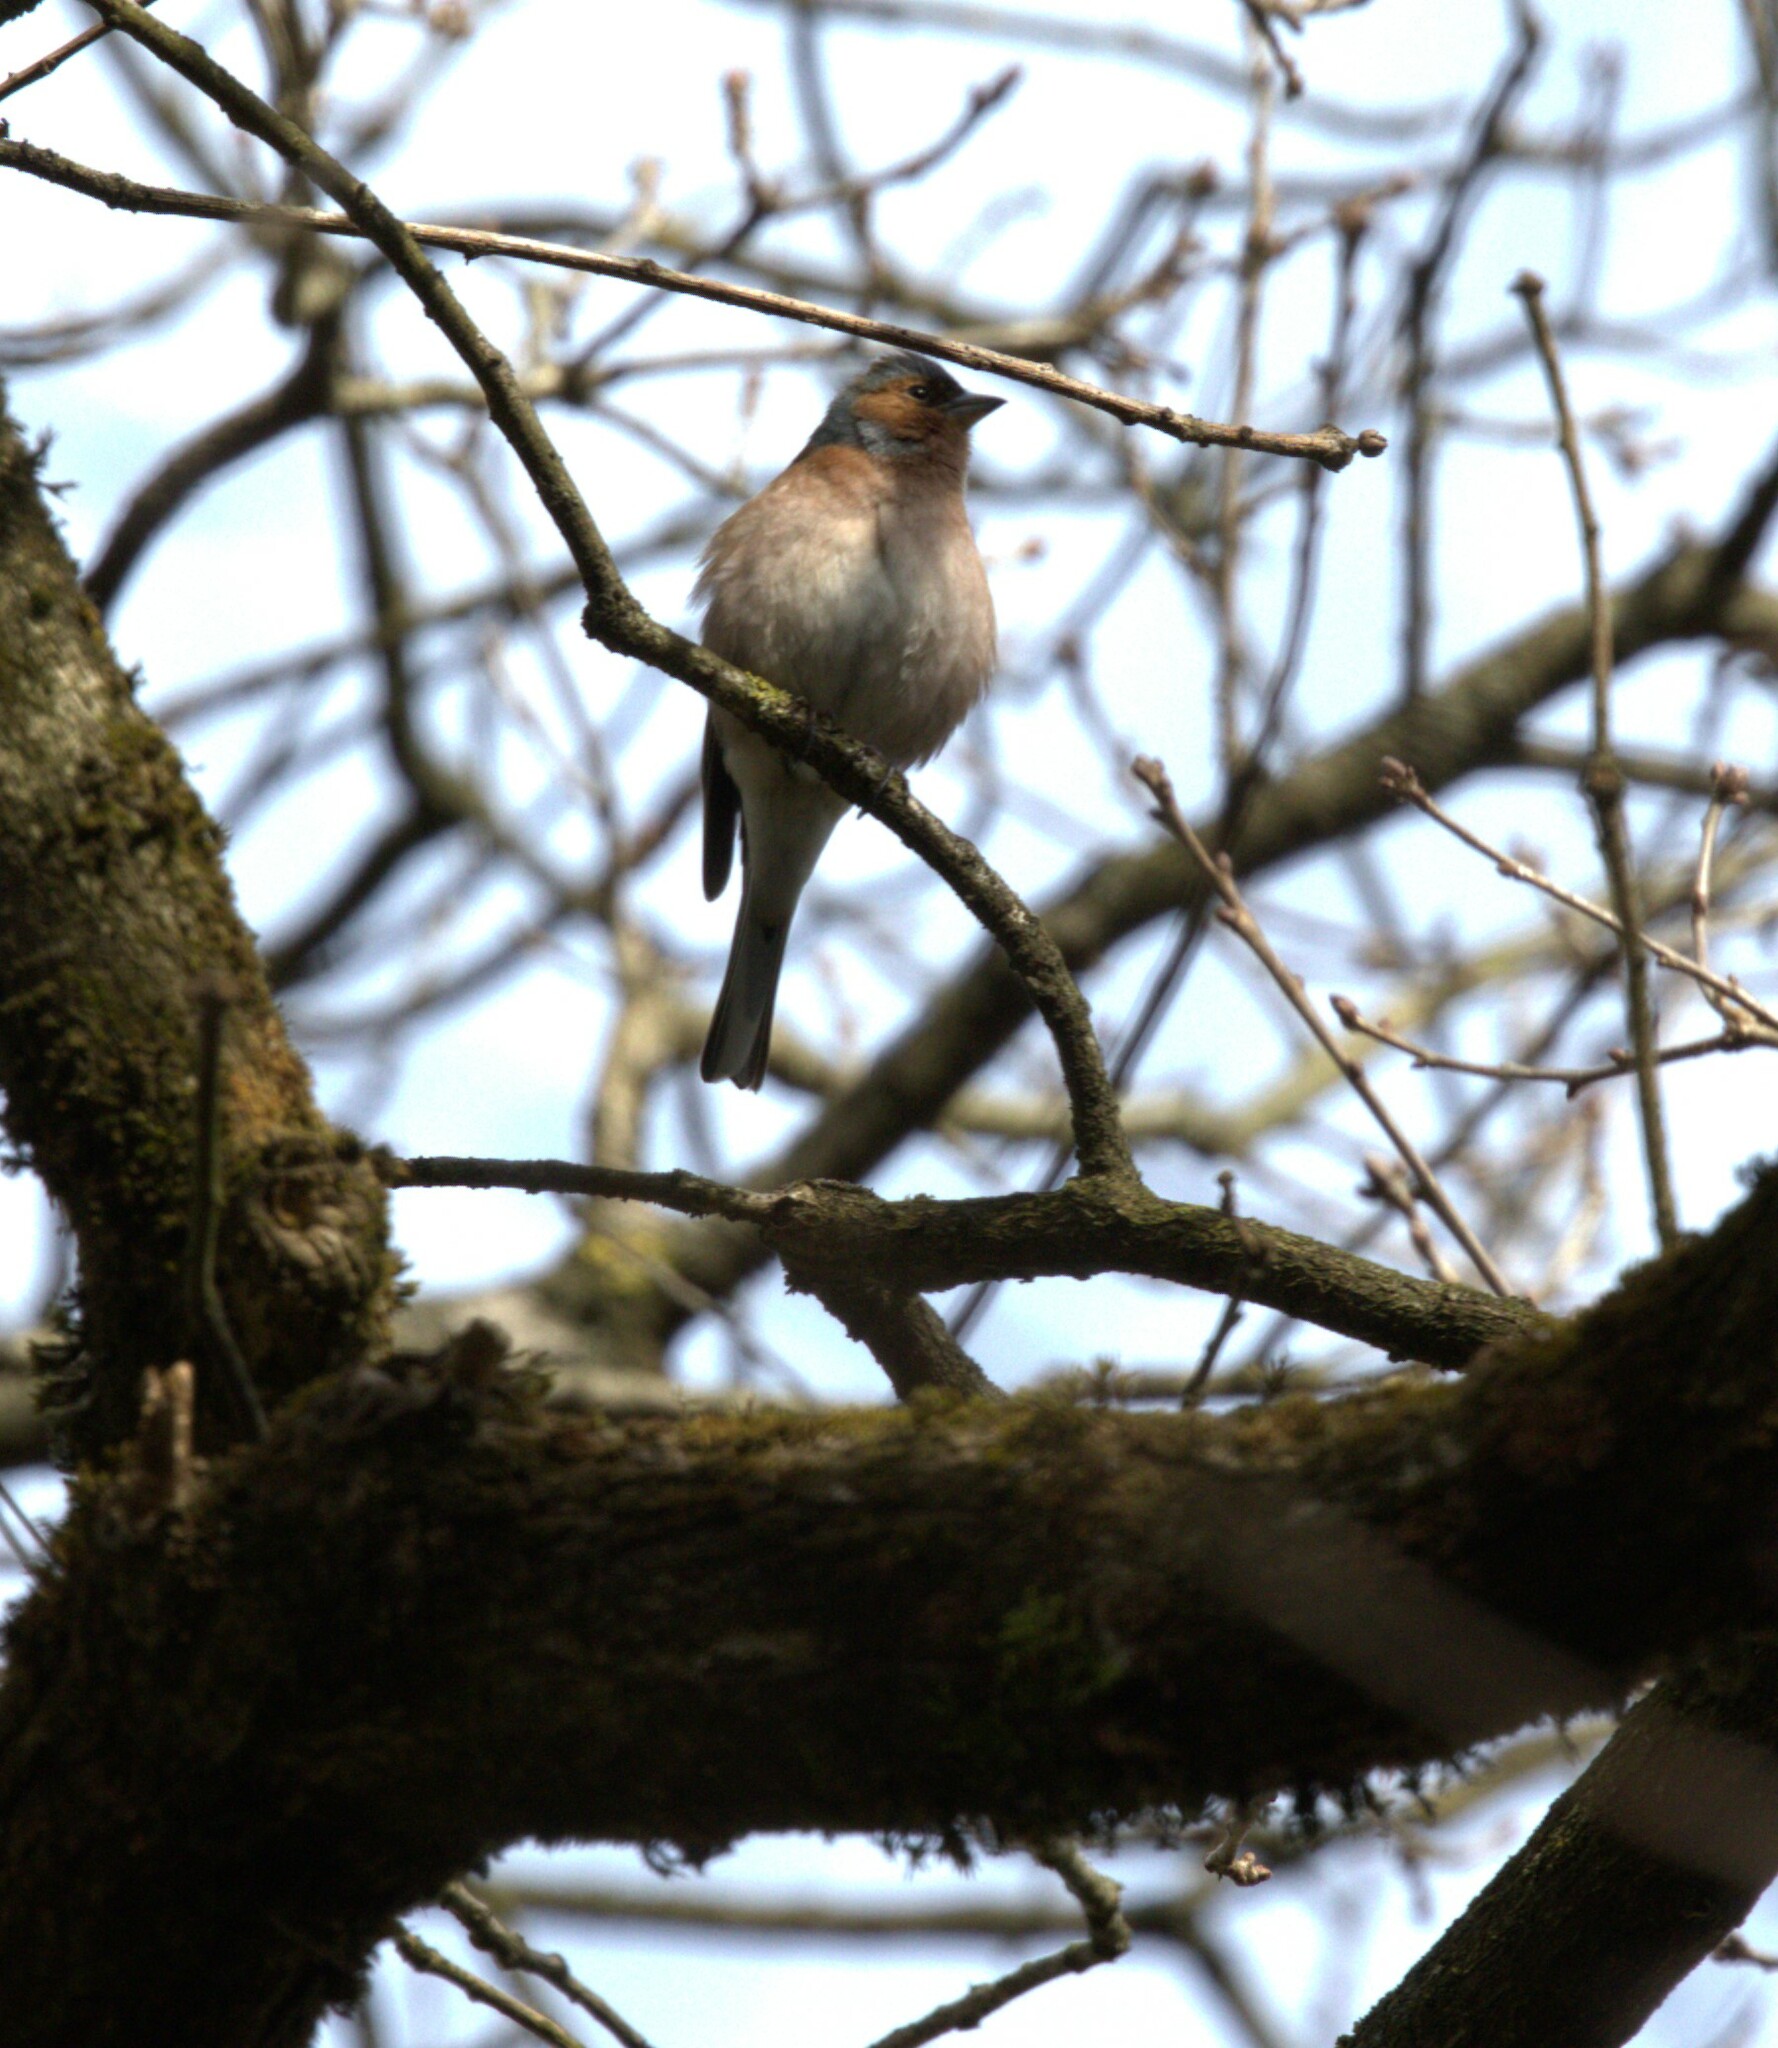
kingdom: Animalia
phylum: Chordata
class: Aves
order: Passeriformes
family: Fringillidae
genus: Fringilla
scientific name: Fringilla coelebs
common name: Common chaffinch
